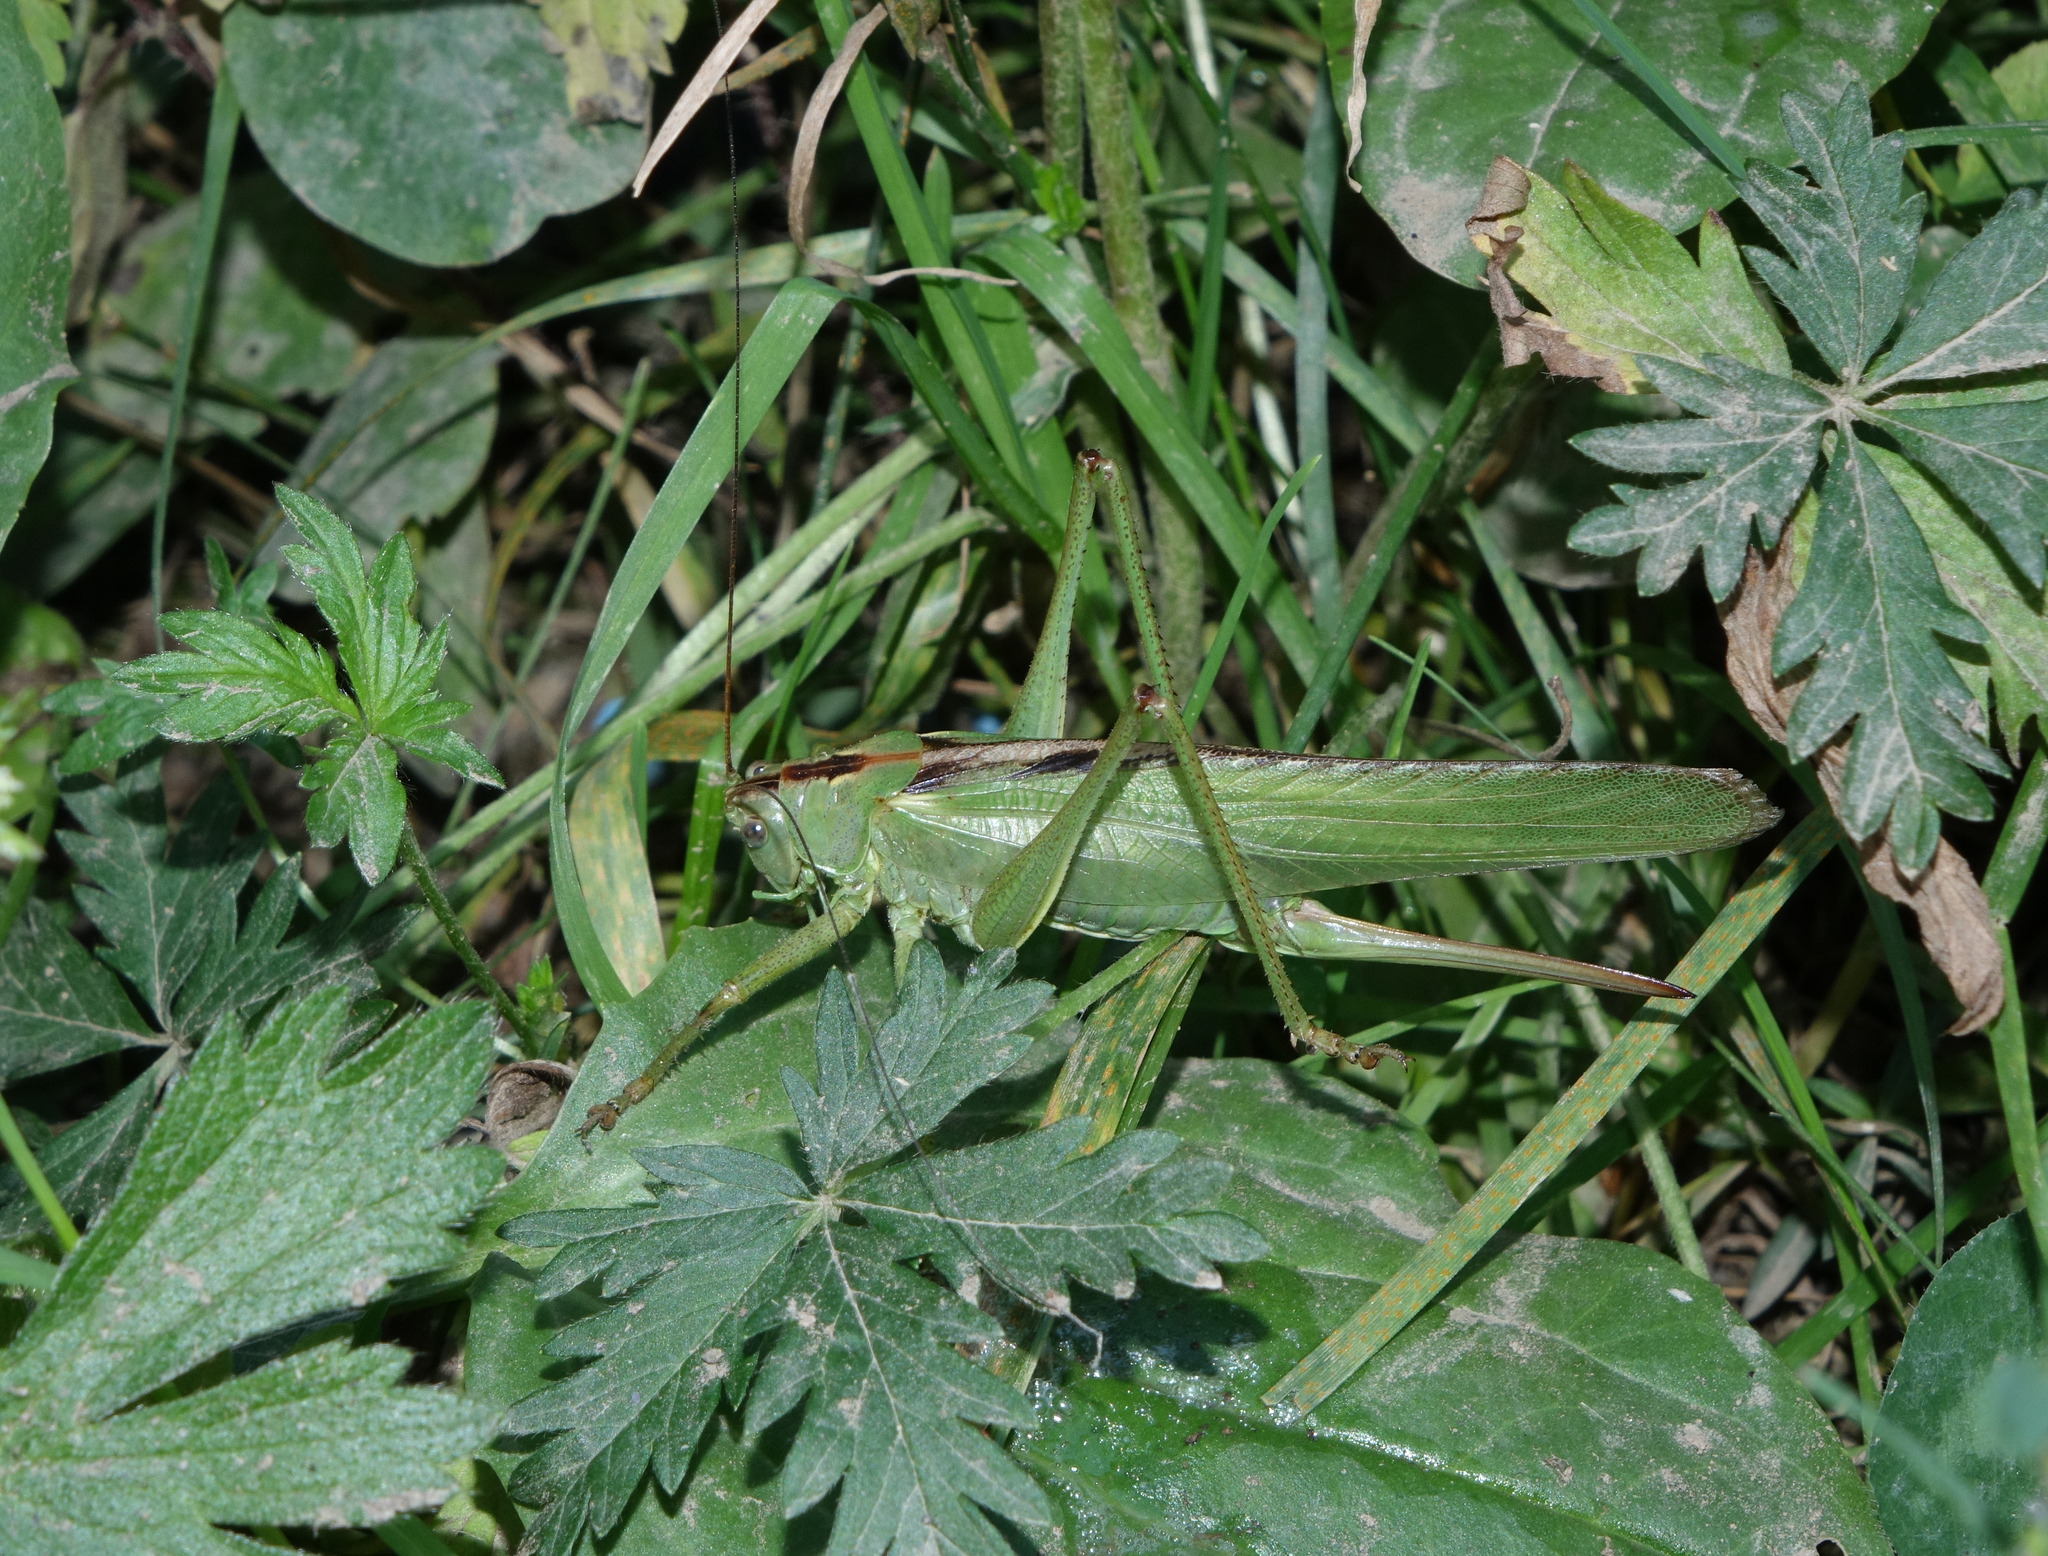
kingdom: Animalia
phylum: Arthropoda
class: Insecta
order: Orthoptera
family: Tettigoniidae
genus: Tettigonia
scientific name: Tettigonia viridissima
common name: Great green bush-cricket
